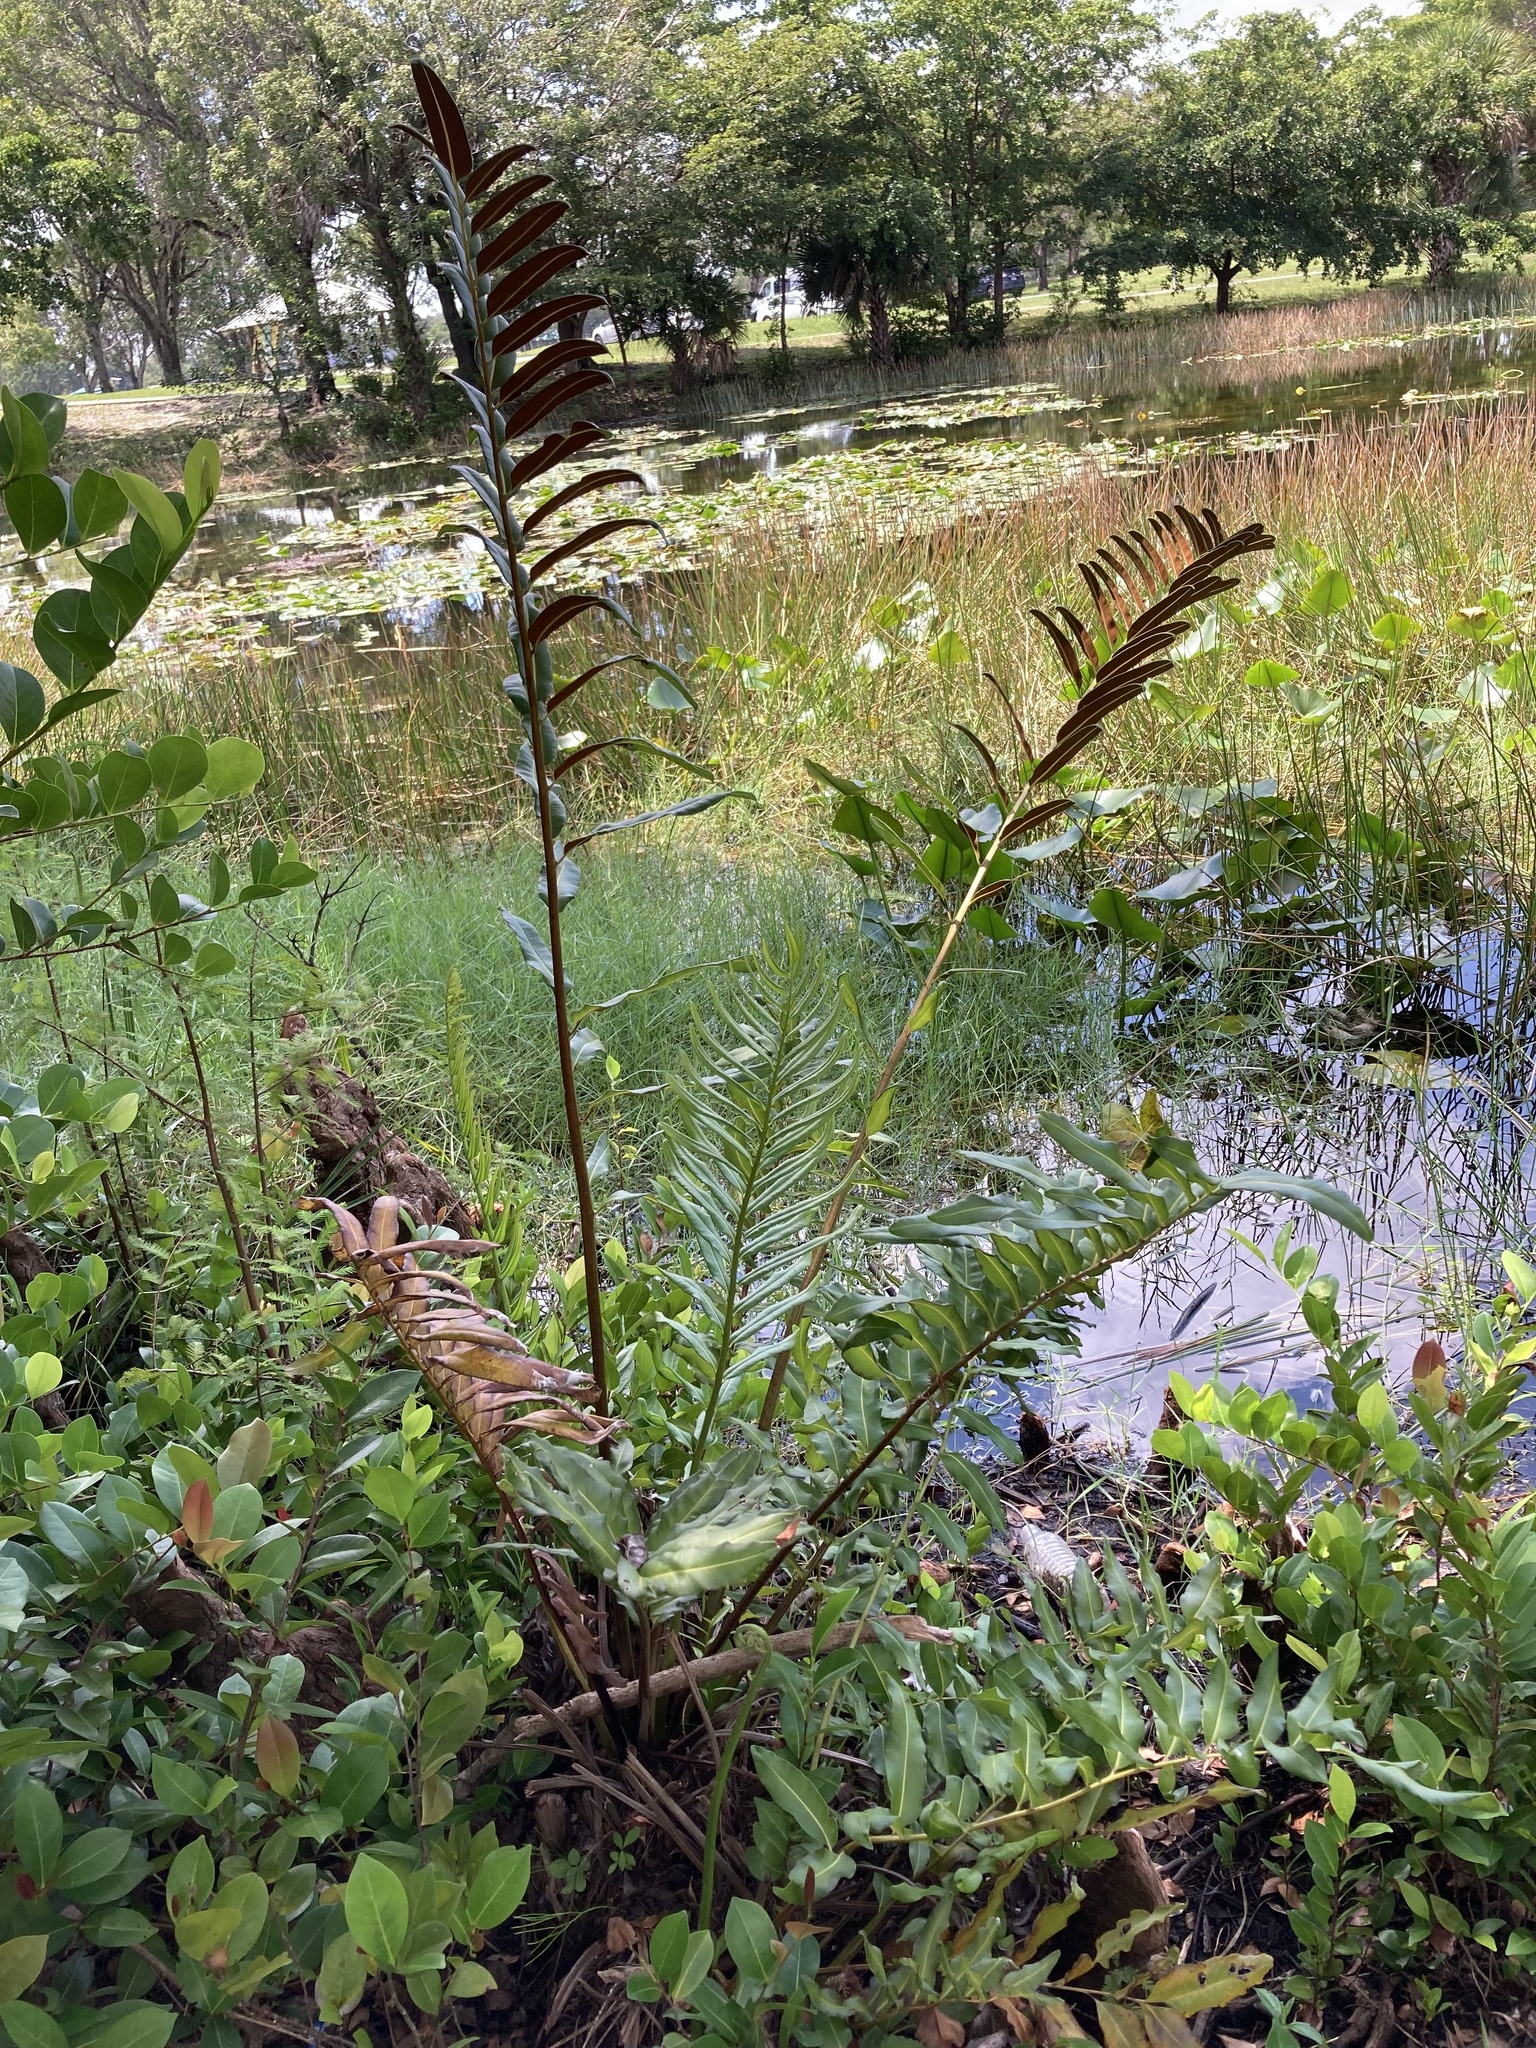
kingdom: Plantae
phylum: Tracheophyta
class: Polypodiopsida
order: Polypodiales
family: Pteridaceae
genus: Acrostichum
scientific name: Acrostichum danaeifolium
